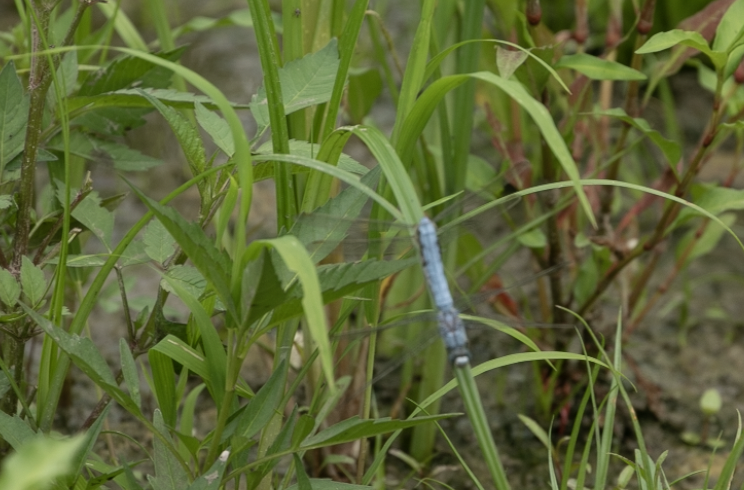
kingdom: Animalia
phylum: Arthropoda
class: Insecta
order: Odonata
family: Libellulidae
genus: Orthetrum
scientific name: Orthetrum brunneum
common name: Southern skimmer
